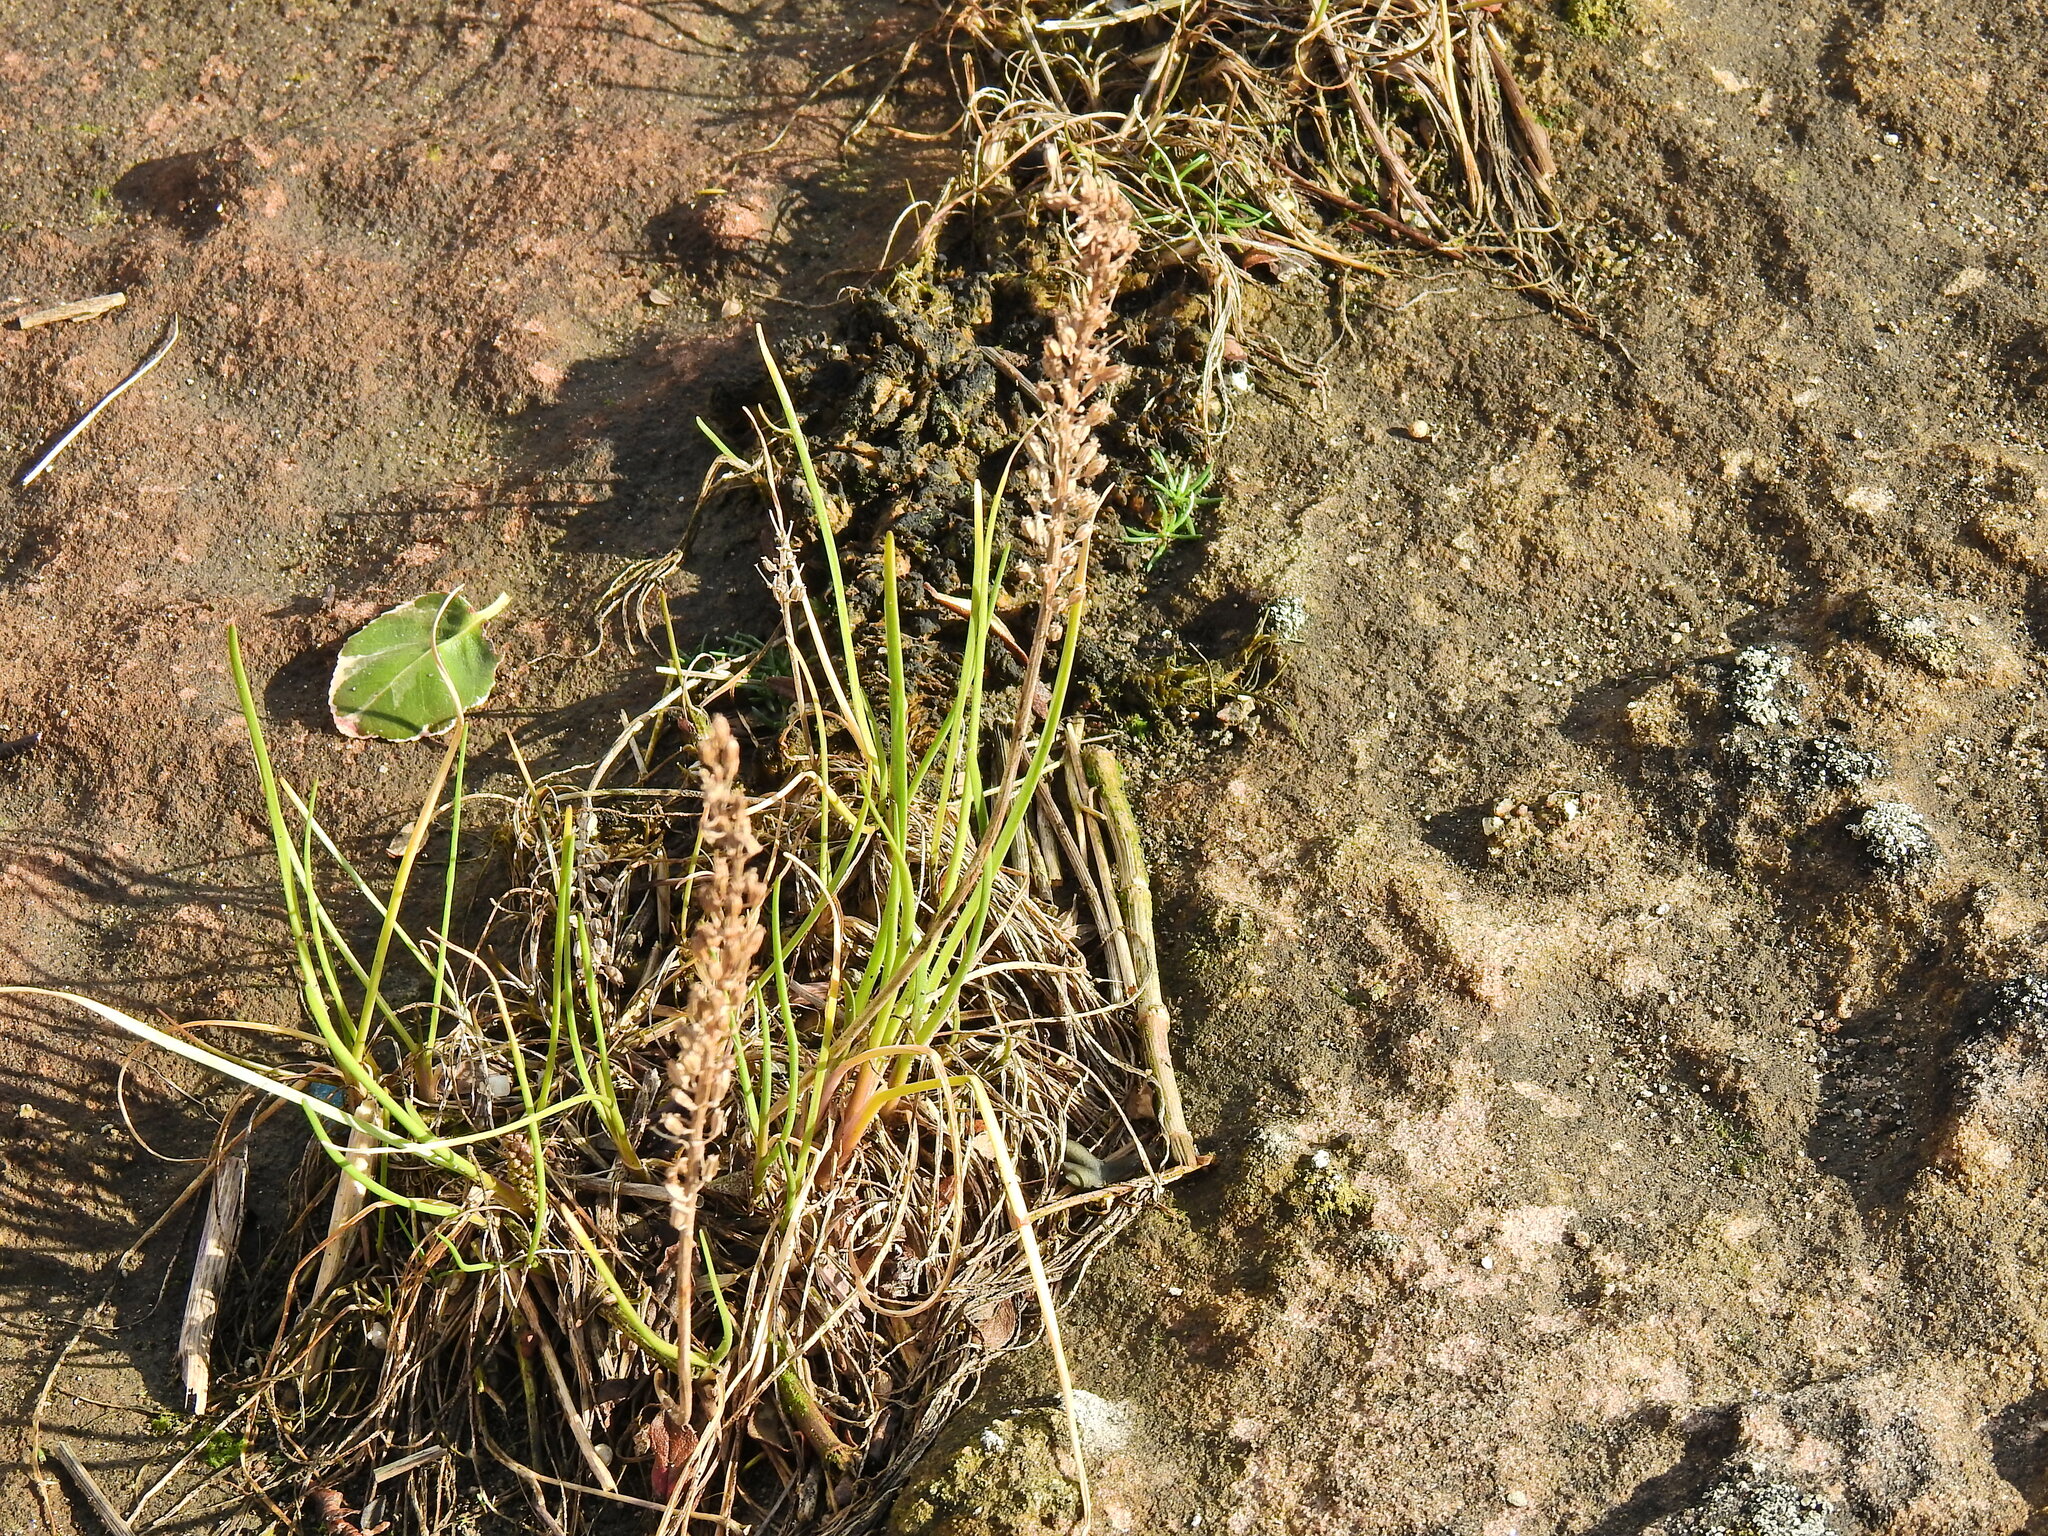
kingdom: Plantae
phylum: Tracheophyta
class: Liliopsida
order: Alismatales
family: Juncaginaceae
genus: Triglochin
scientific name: Triglochin maritima
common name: Sea arrowgrass
